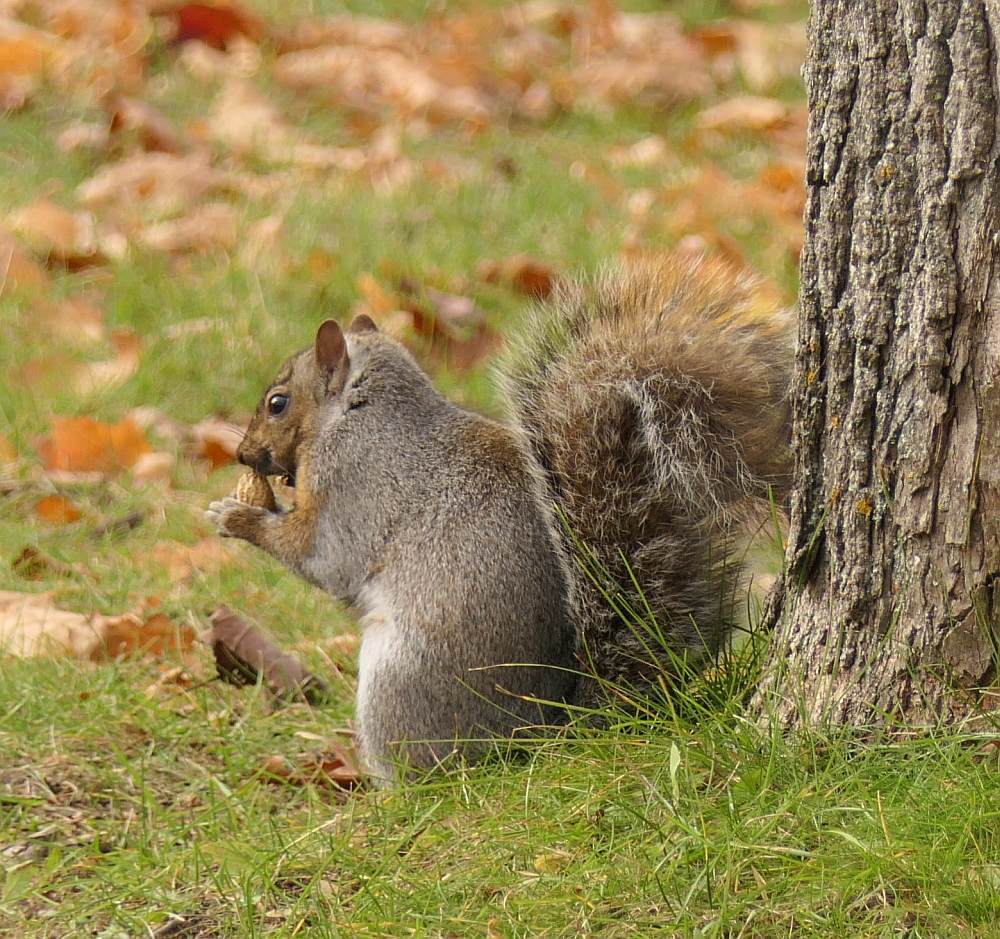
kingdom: Animalia
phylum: Chordata
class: Mammalia
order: Rodentia
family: Sciuridae
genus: Sciurus
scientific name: Sciurus carolinensis
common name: Eastern gray squirrel
